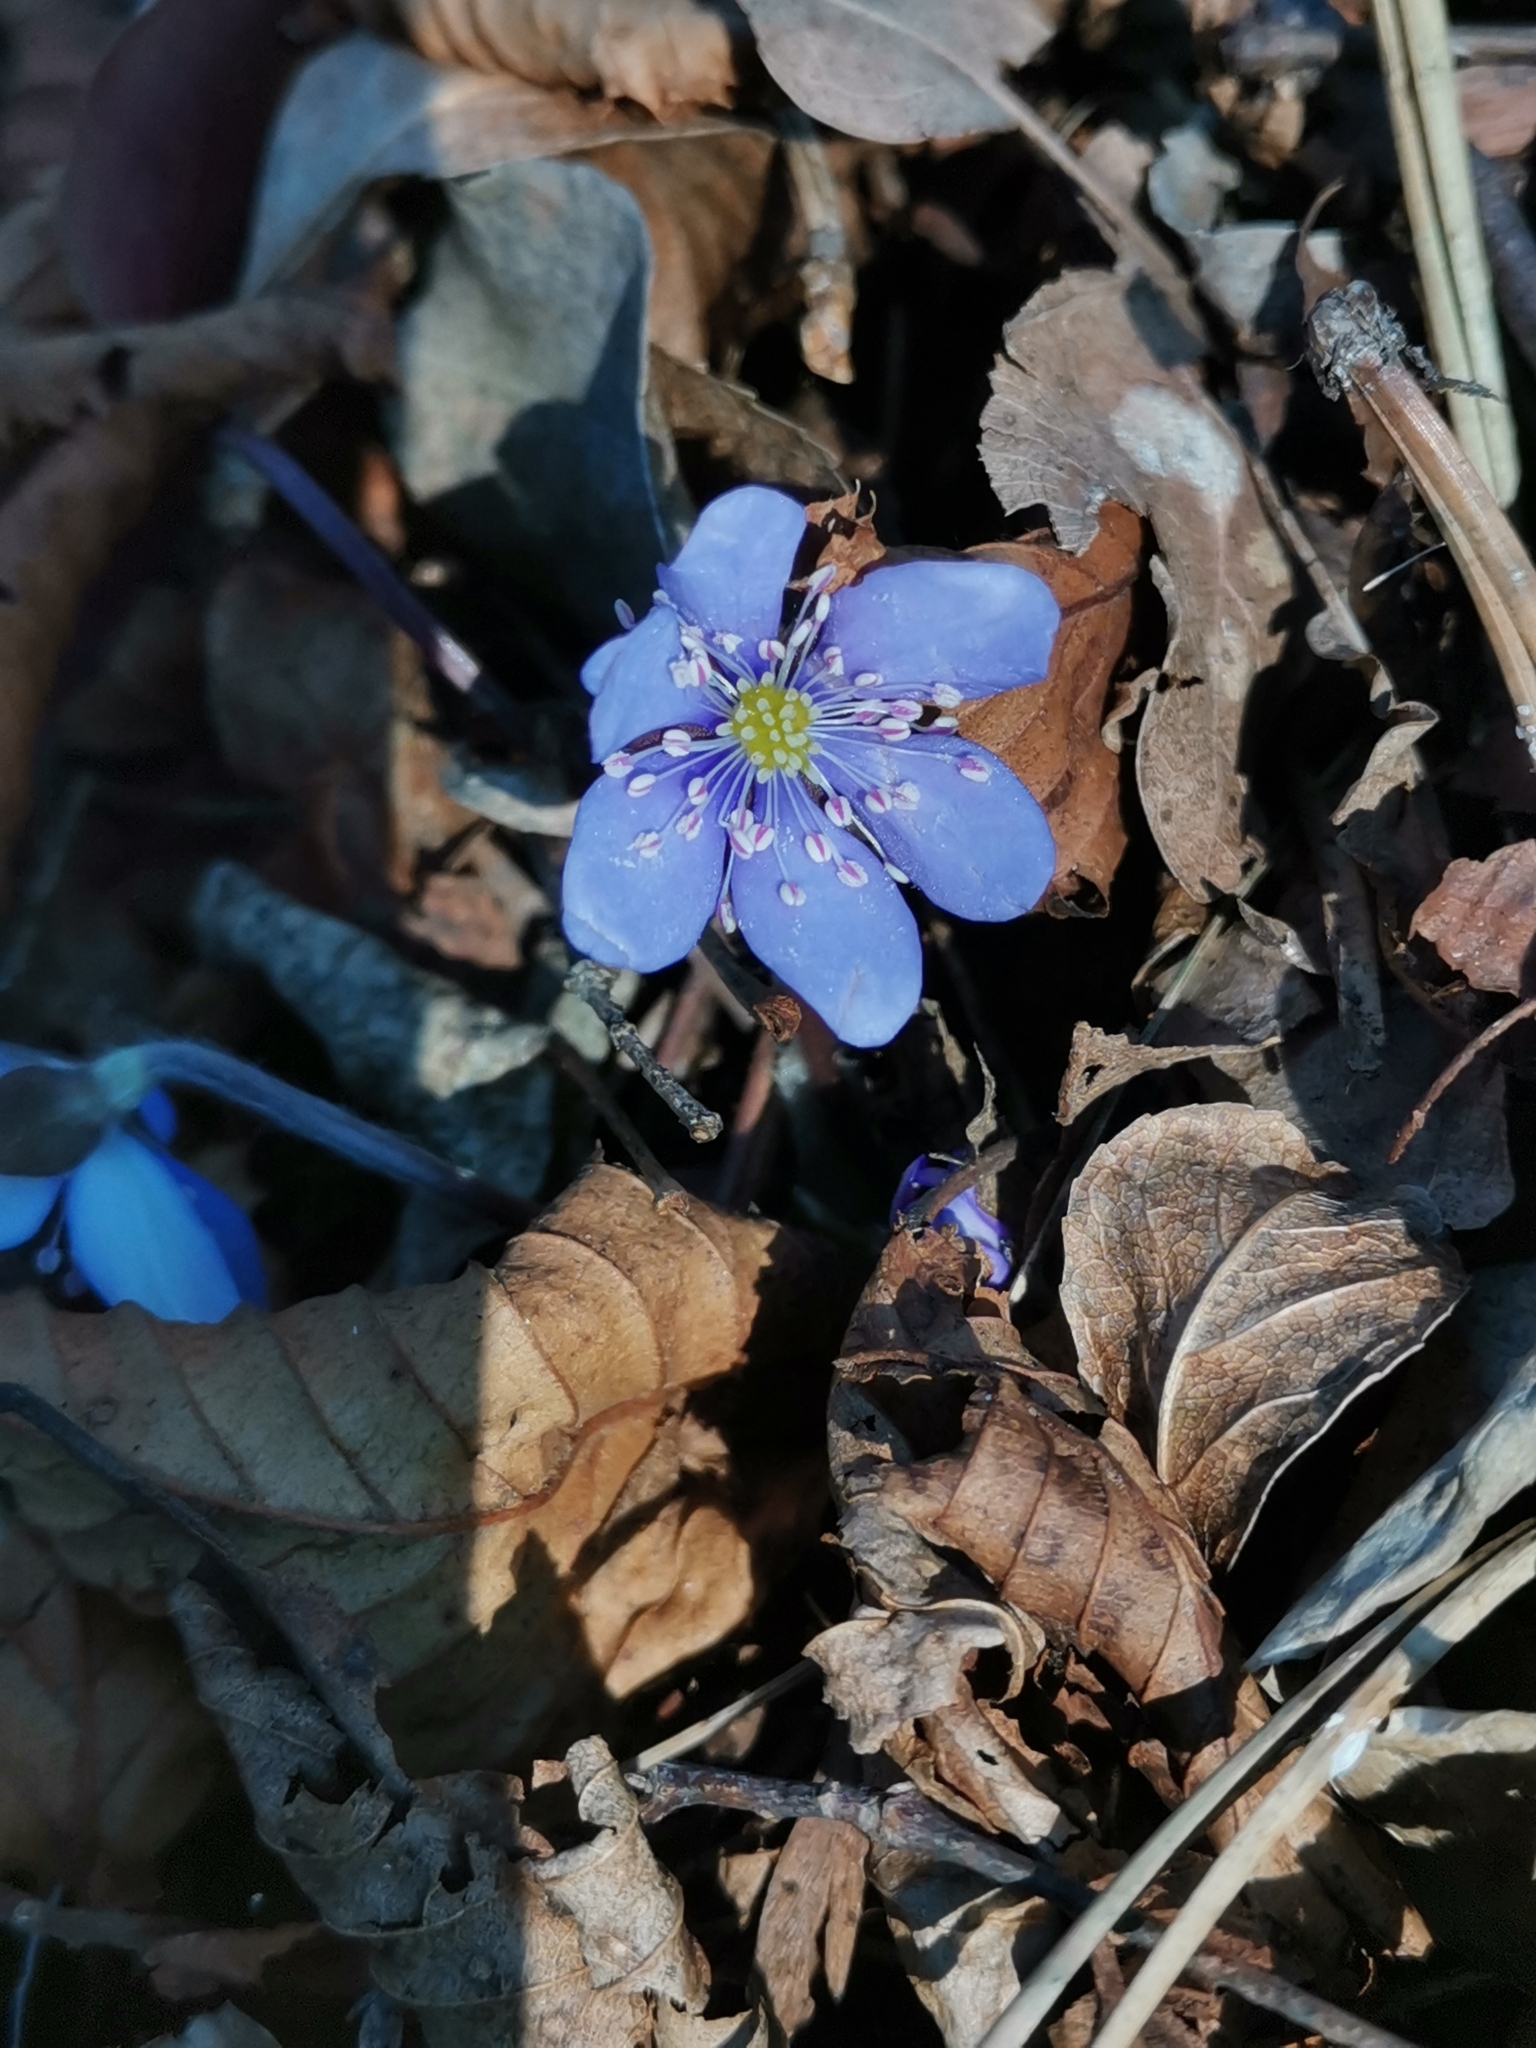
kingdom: Plantae
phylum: Tracheophyta
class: Magnoliopsida
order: Ranunculales
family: Ranunculaceae
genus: Hepatica
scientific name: Hepatica nobilis
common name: Liverleaf
